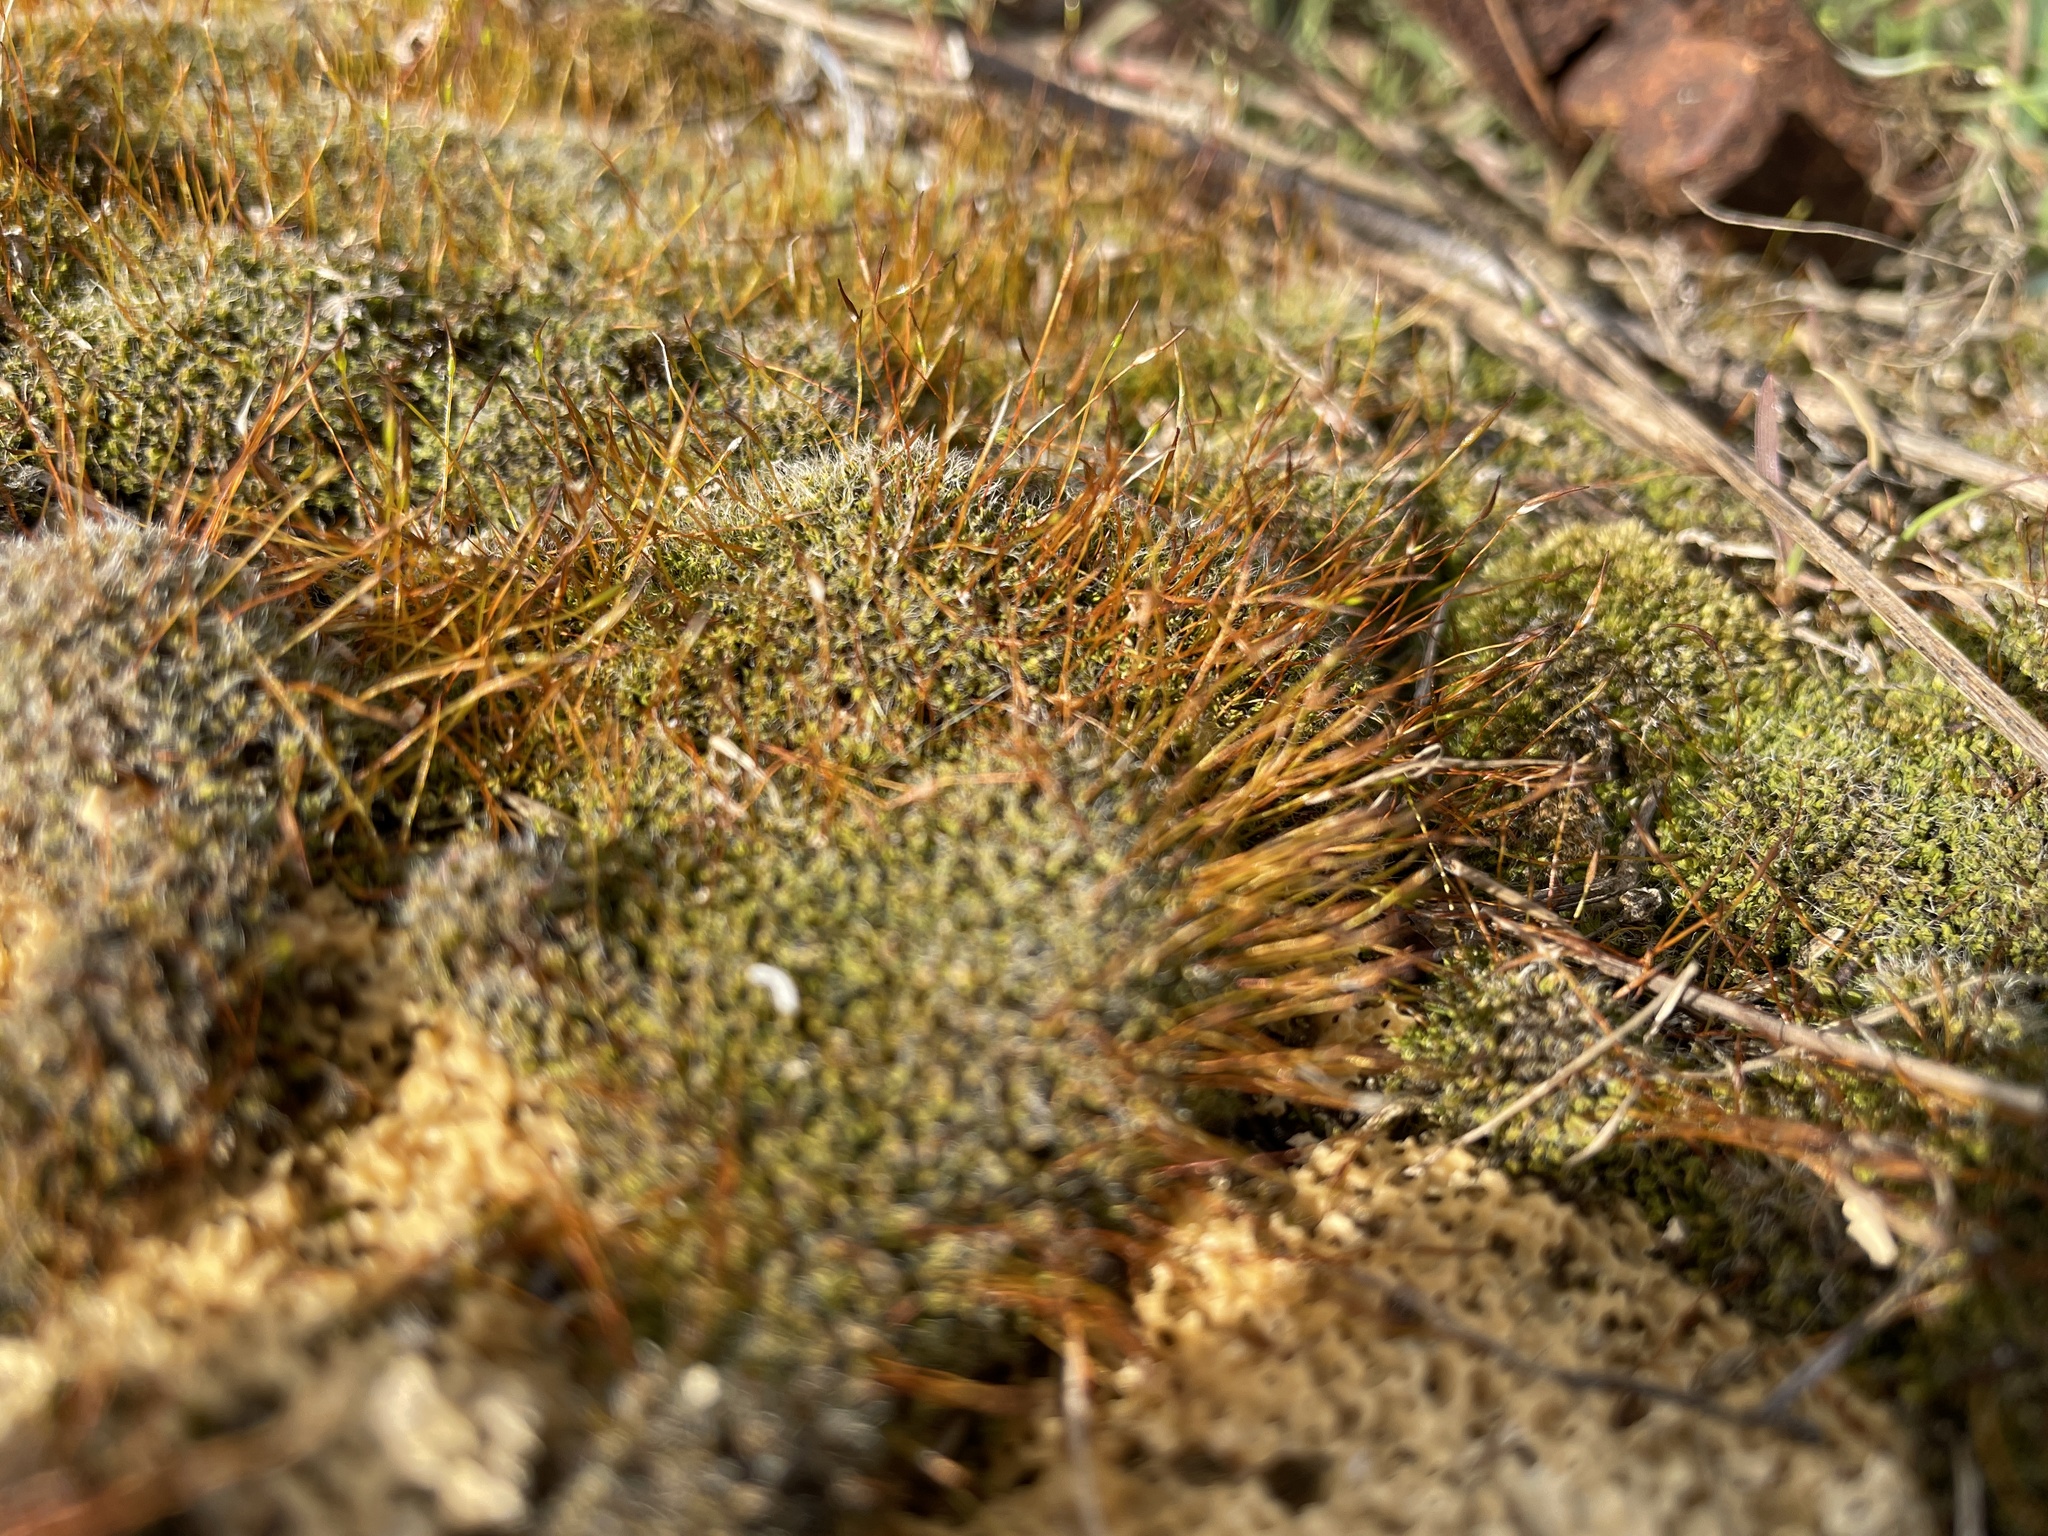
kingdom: Plantae
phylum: Bryophyta
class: Bryopsida
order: Pottiales
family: Pottiaceae
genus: Tortula
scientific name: Tortula muralis
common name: Wall screw-moss
